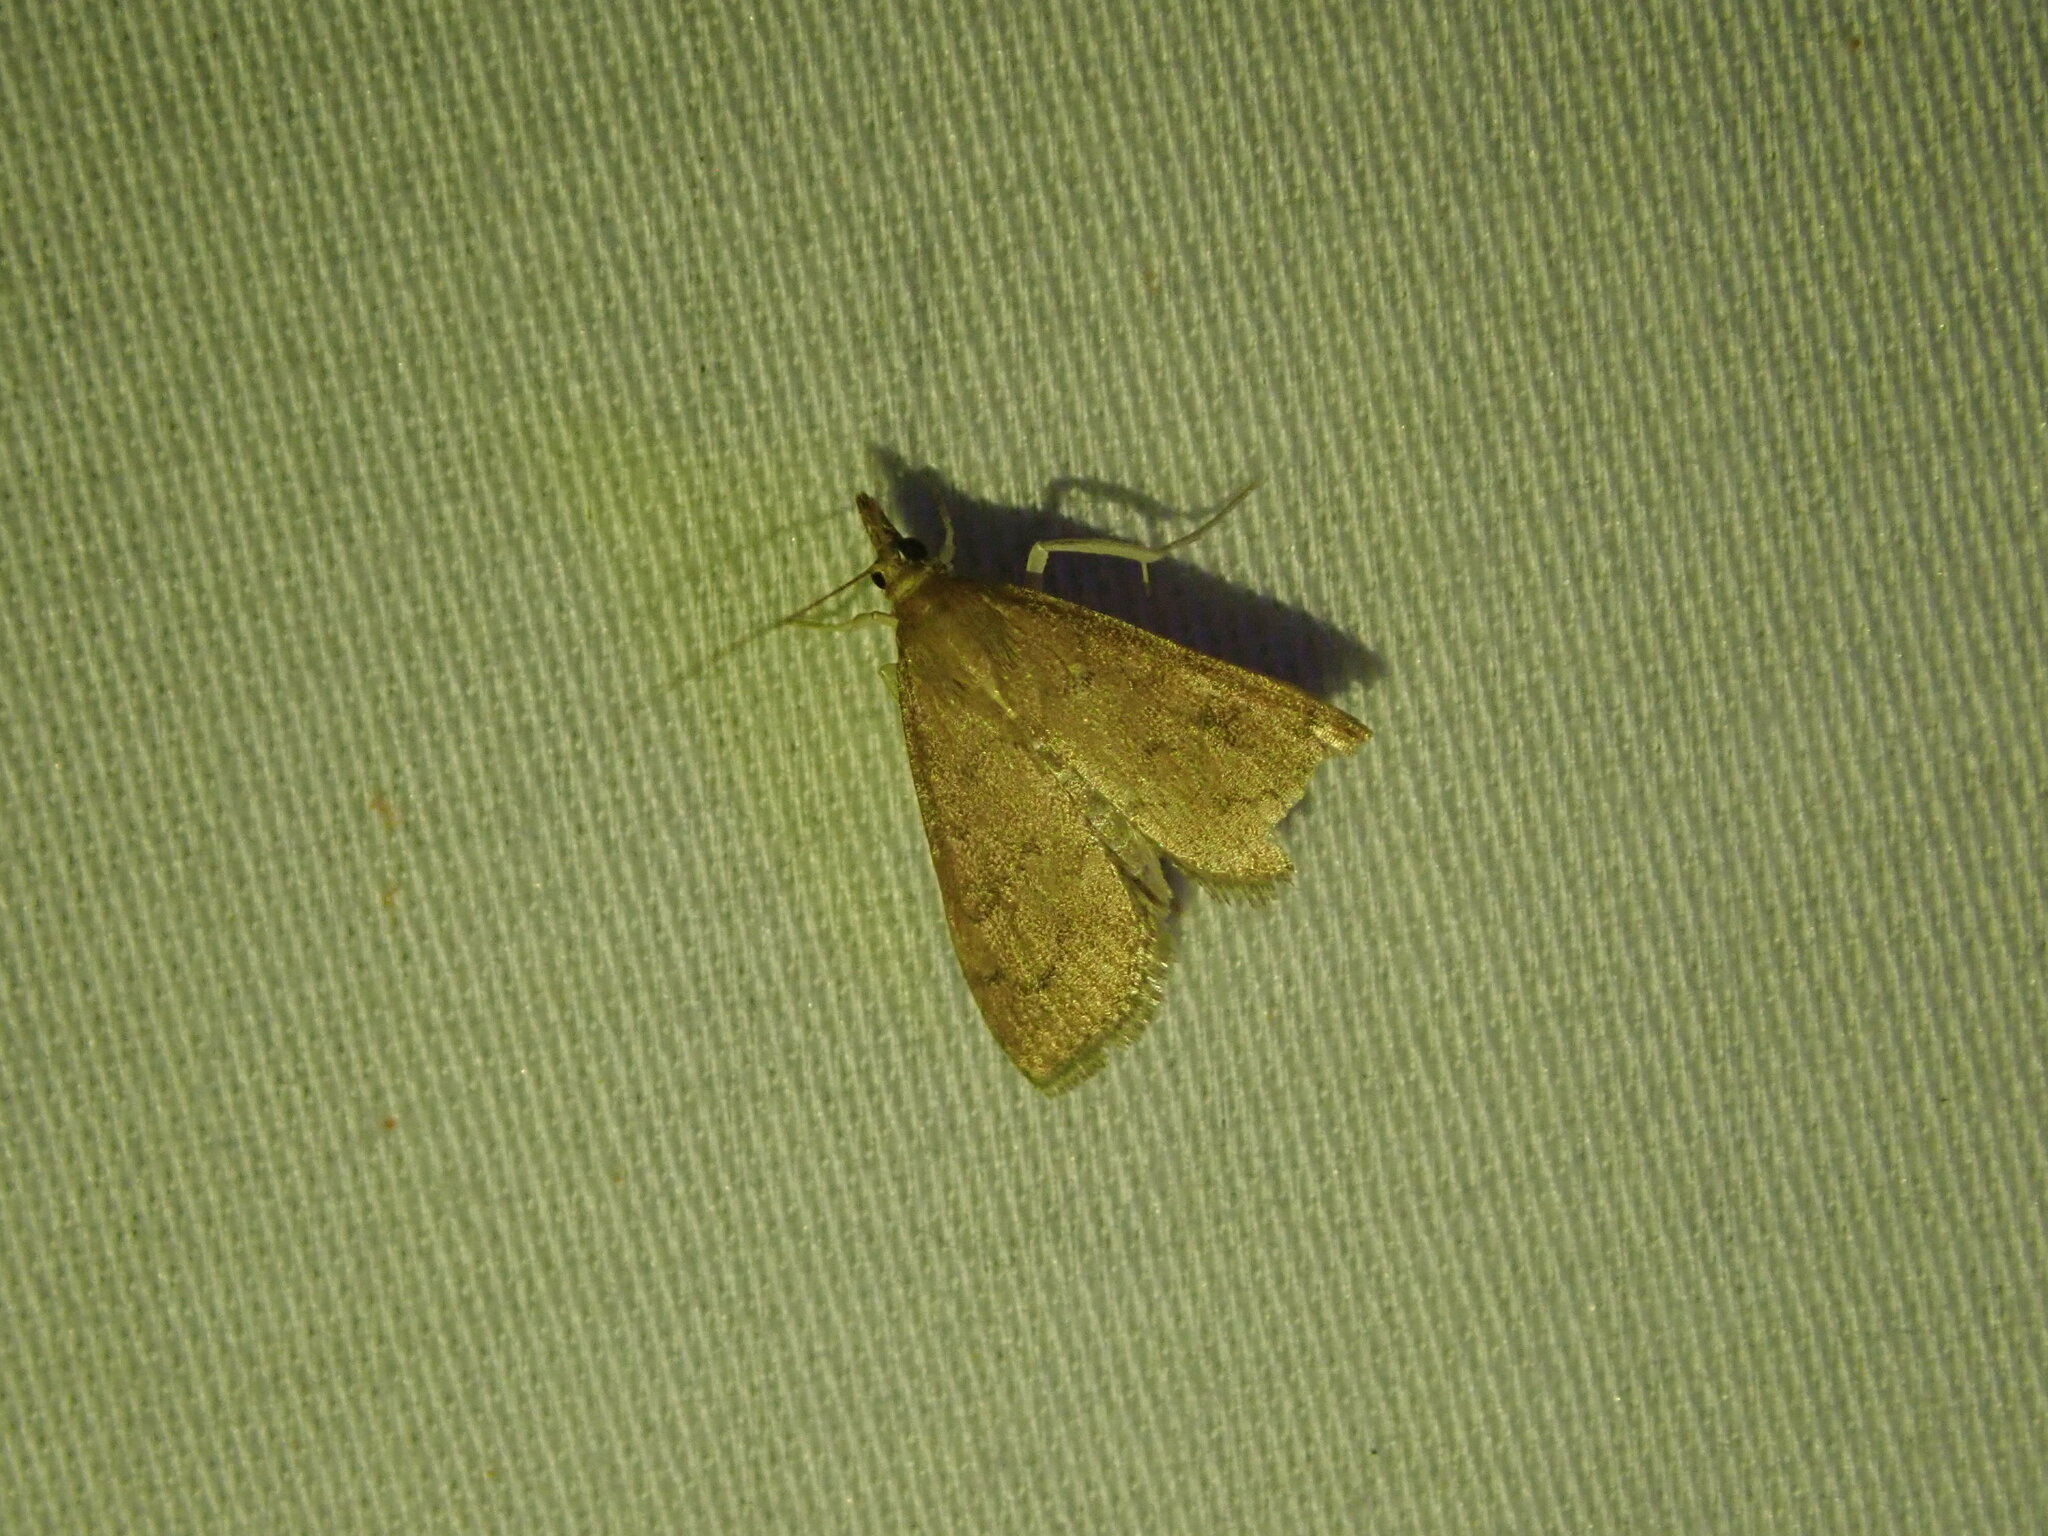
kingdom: Animalia
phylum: Arthropoda
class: Insecta
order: Lepidoptera
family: Crambidae
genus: Udea
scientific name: Udea rubigalis
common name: Celery leaftier moth
